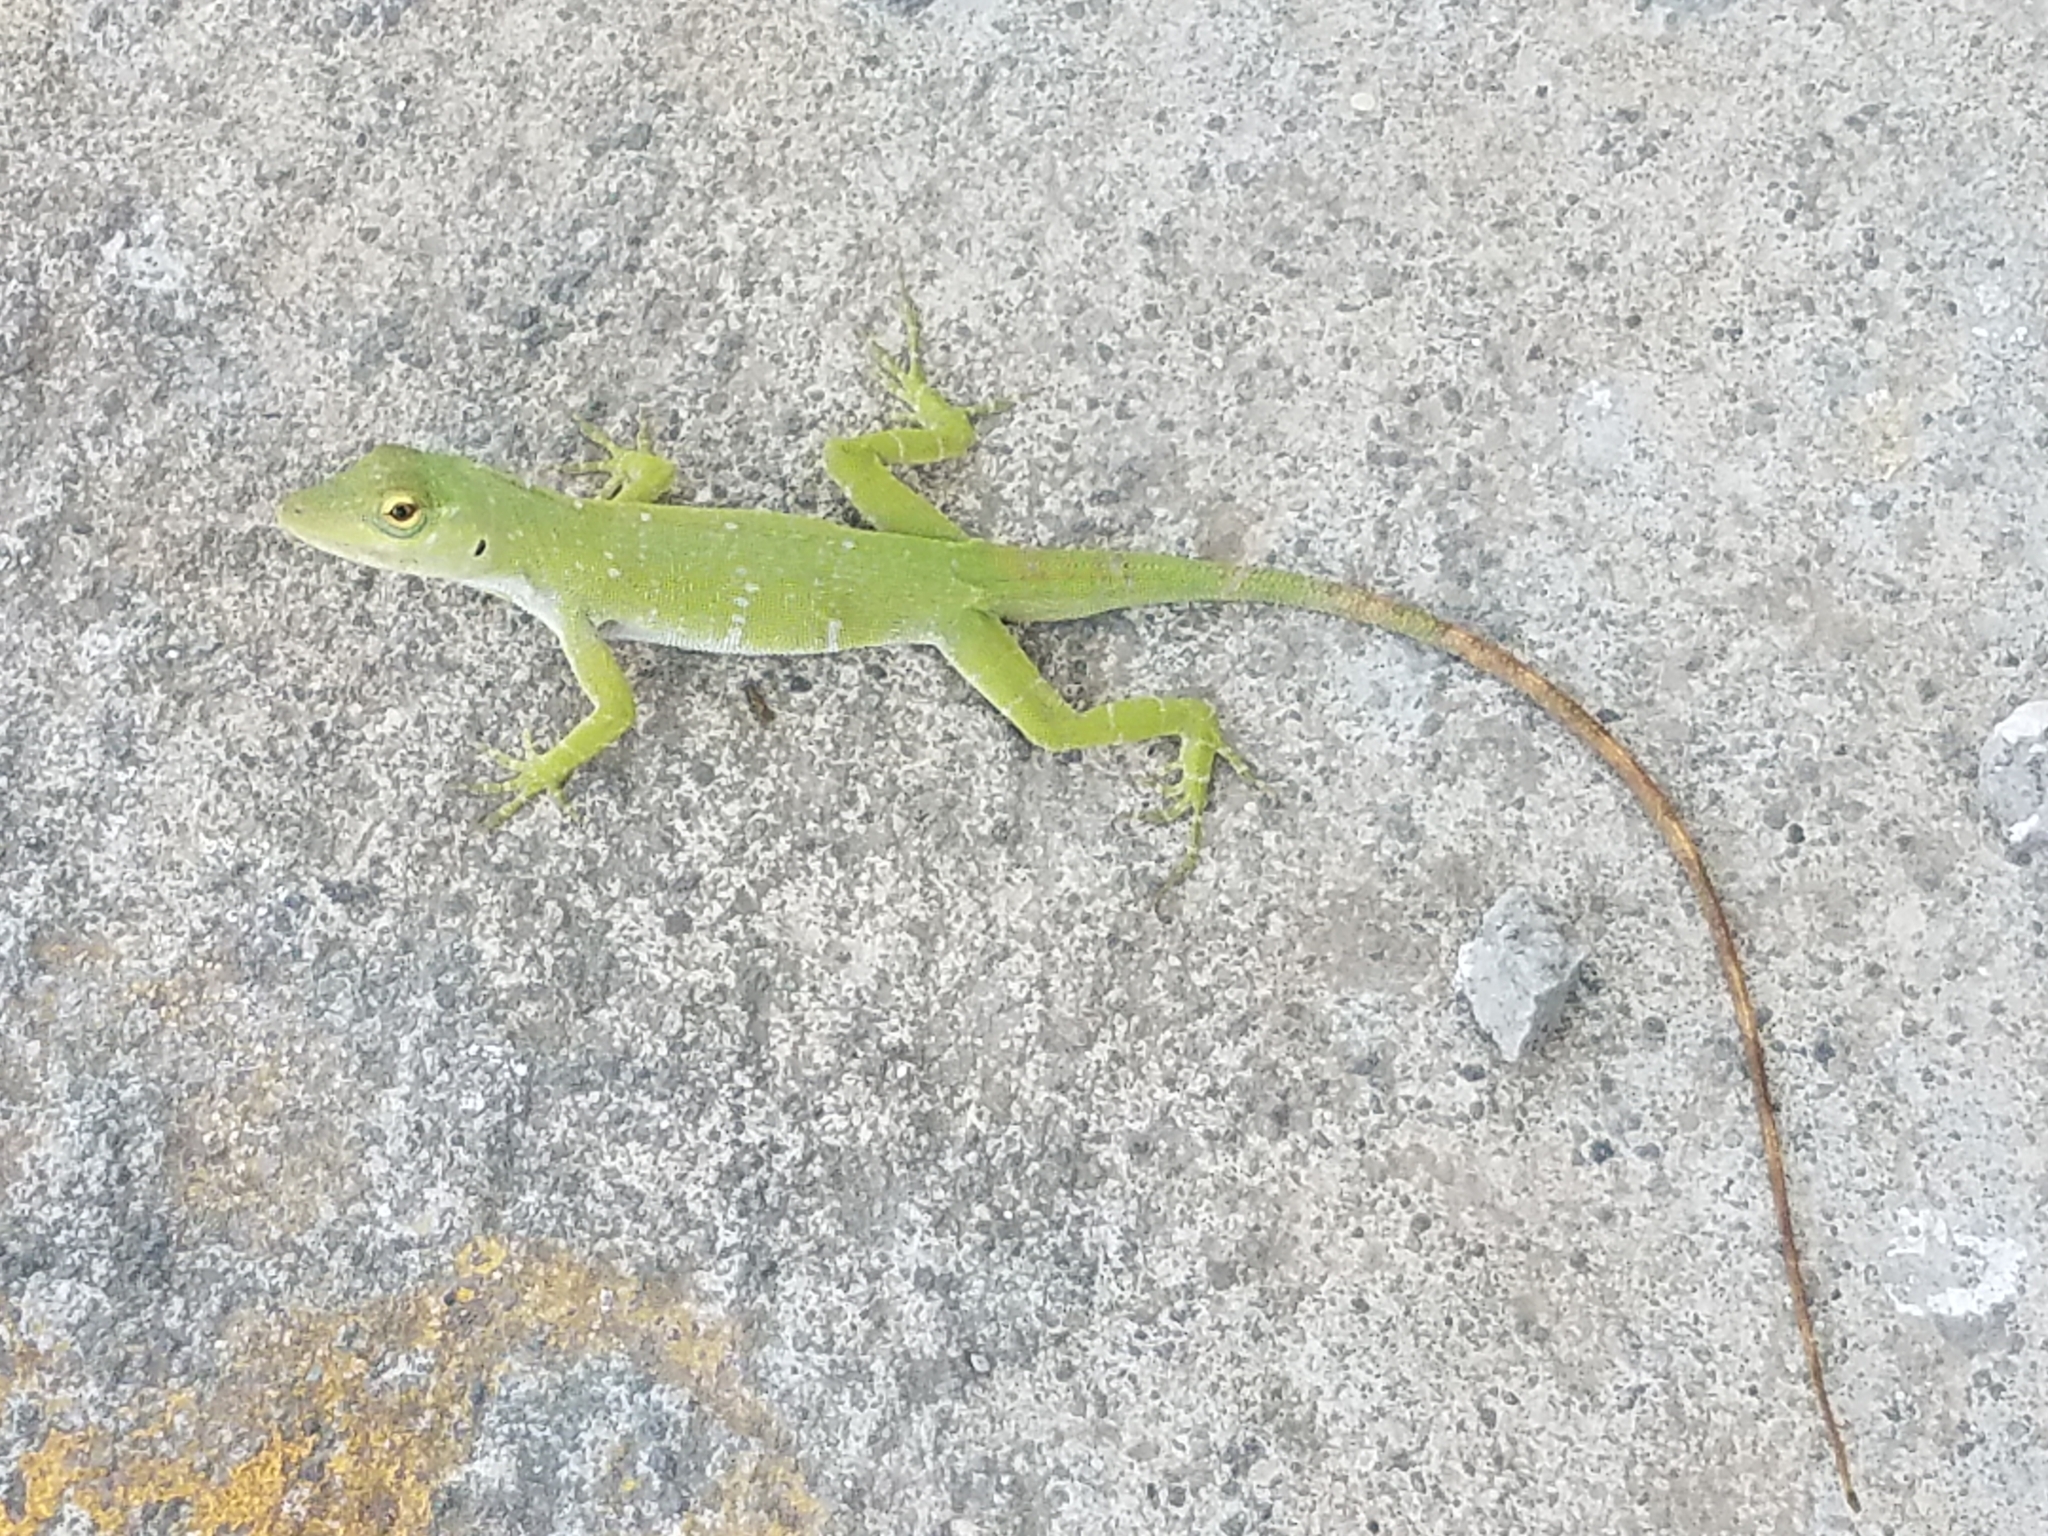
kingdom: Animalia
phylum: Chordata
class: Squamata
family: Dactyloidae
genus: Anolis
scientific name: Anolis biporcatus
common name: Giant green anole
